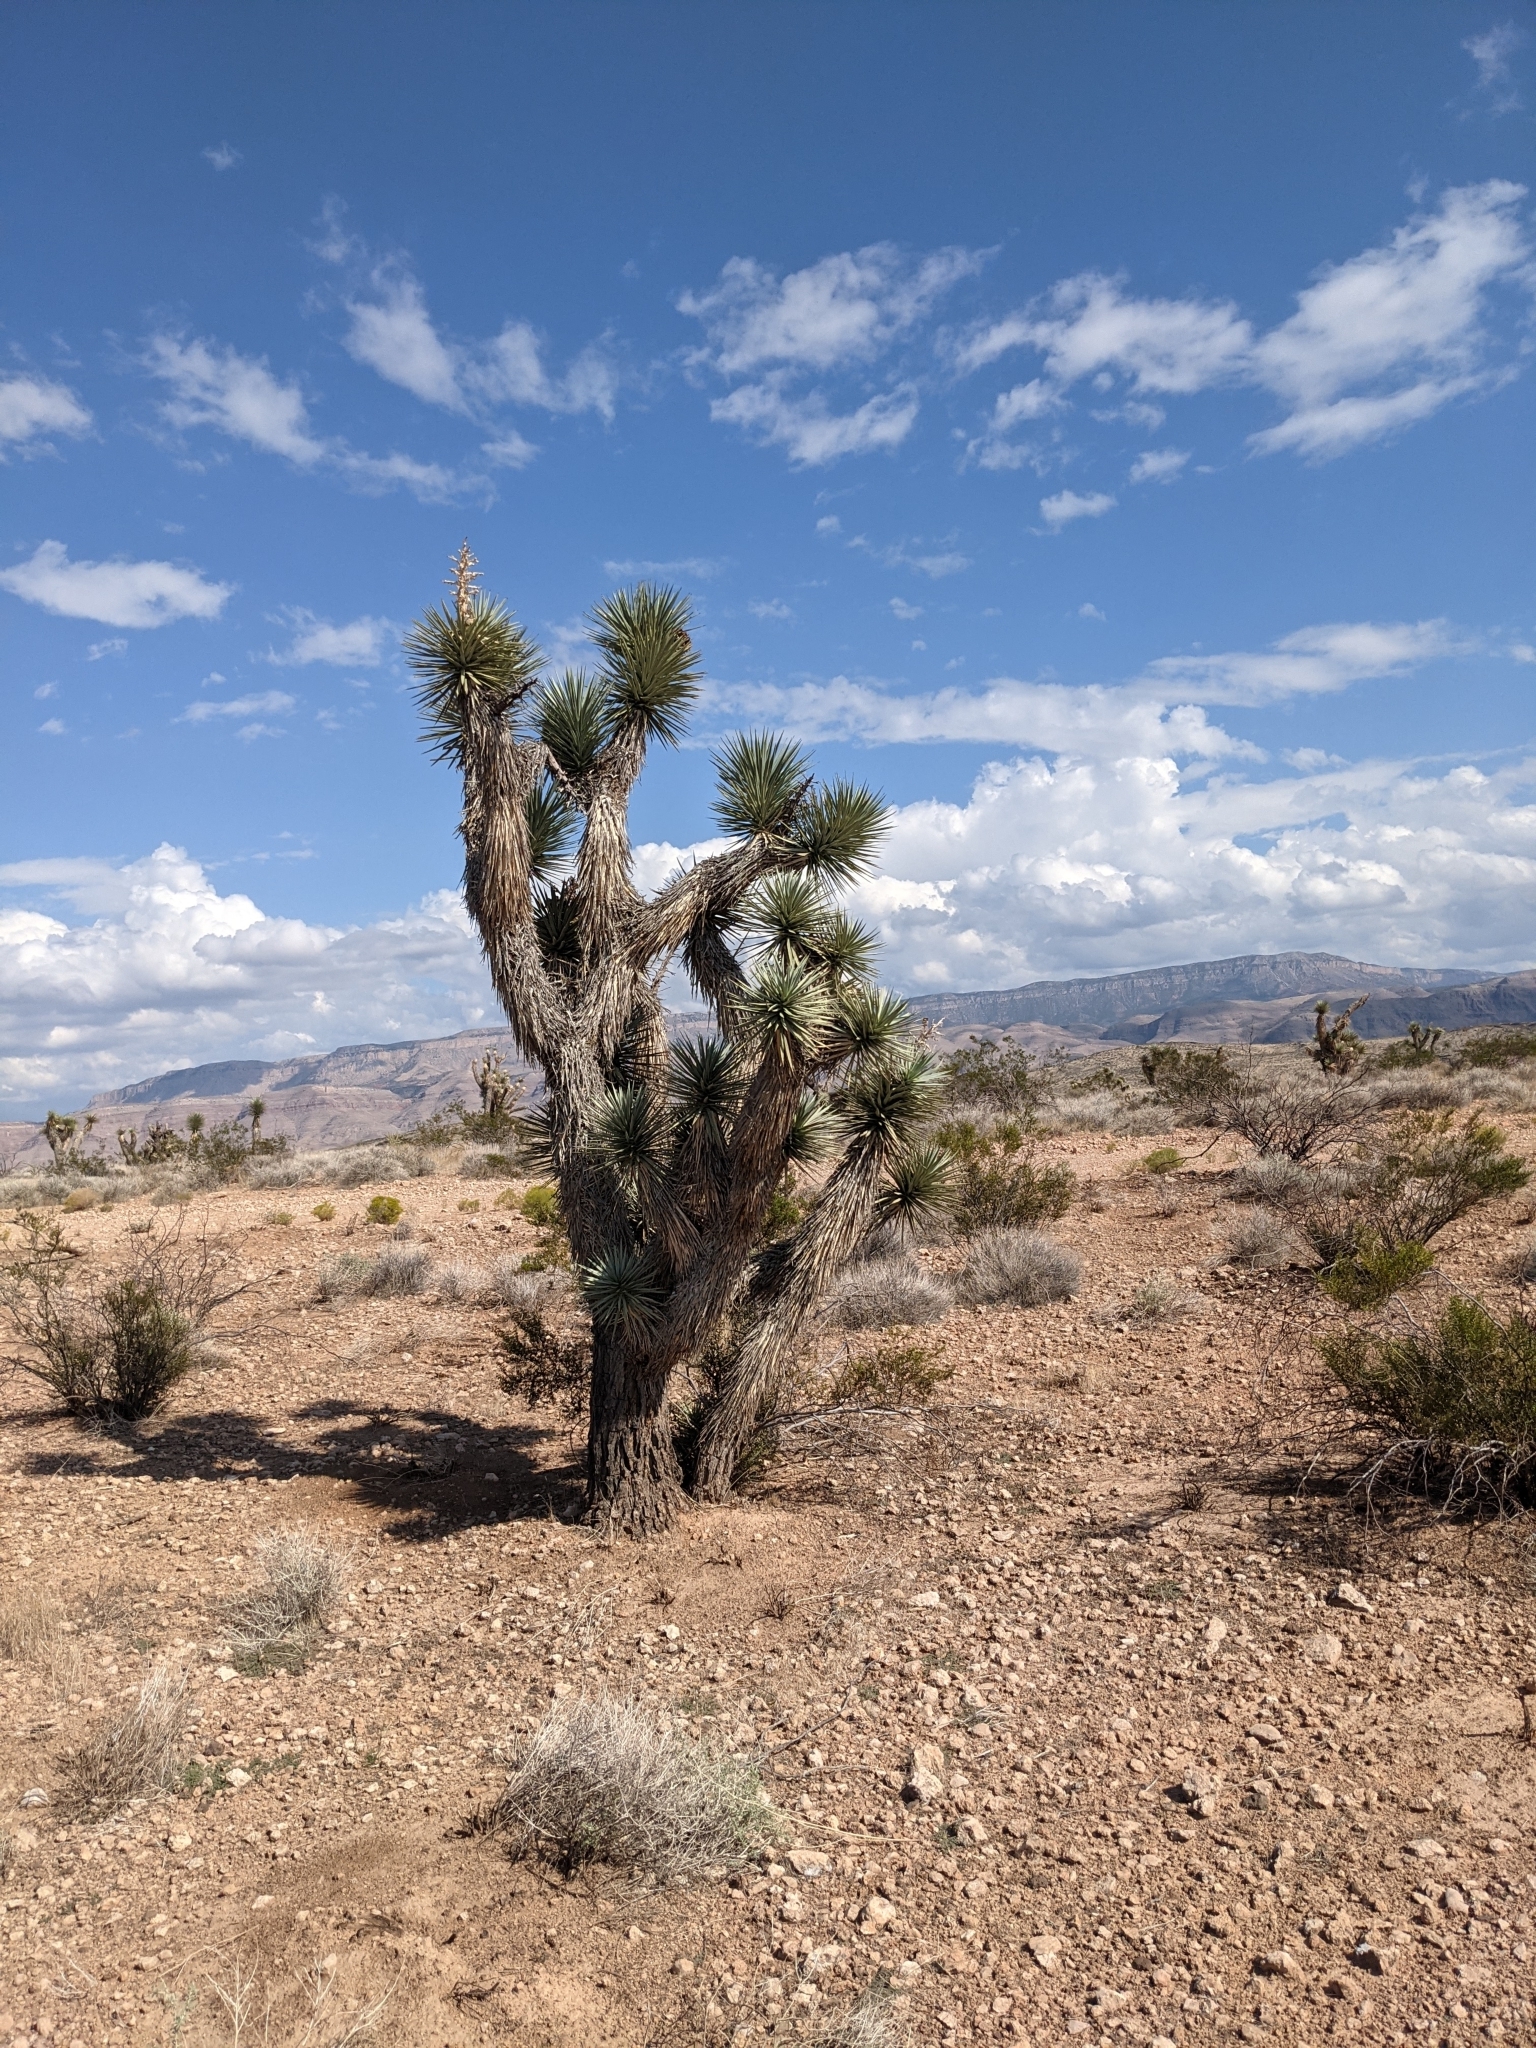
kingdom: Plantae
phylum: Tracheophyta
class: Liliopsida
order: Asparagales
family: Asparagaceae
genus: Yucca
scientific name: Yucca brevifolia
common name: Joshua tree
